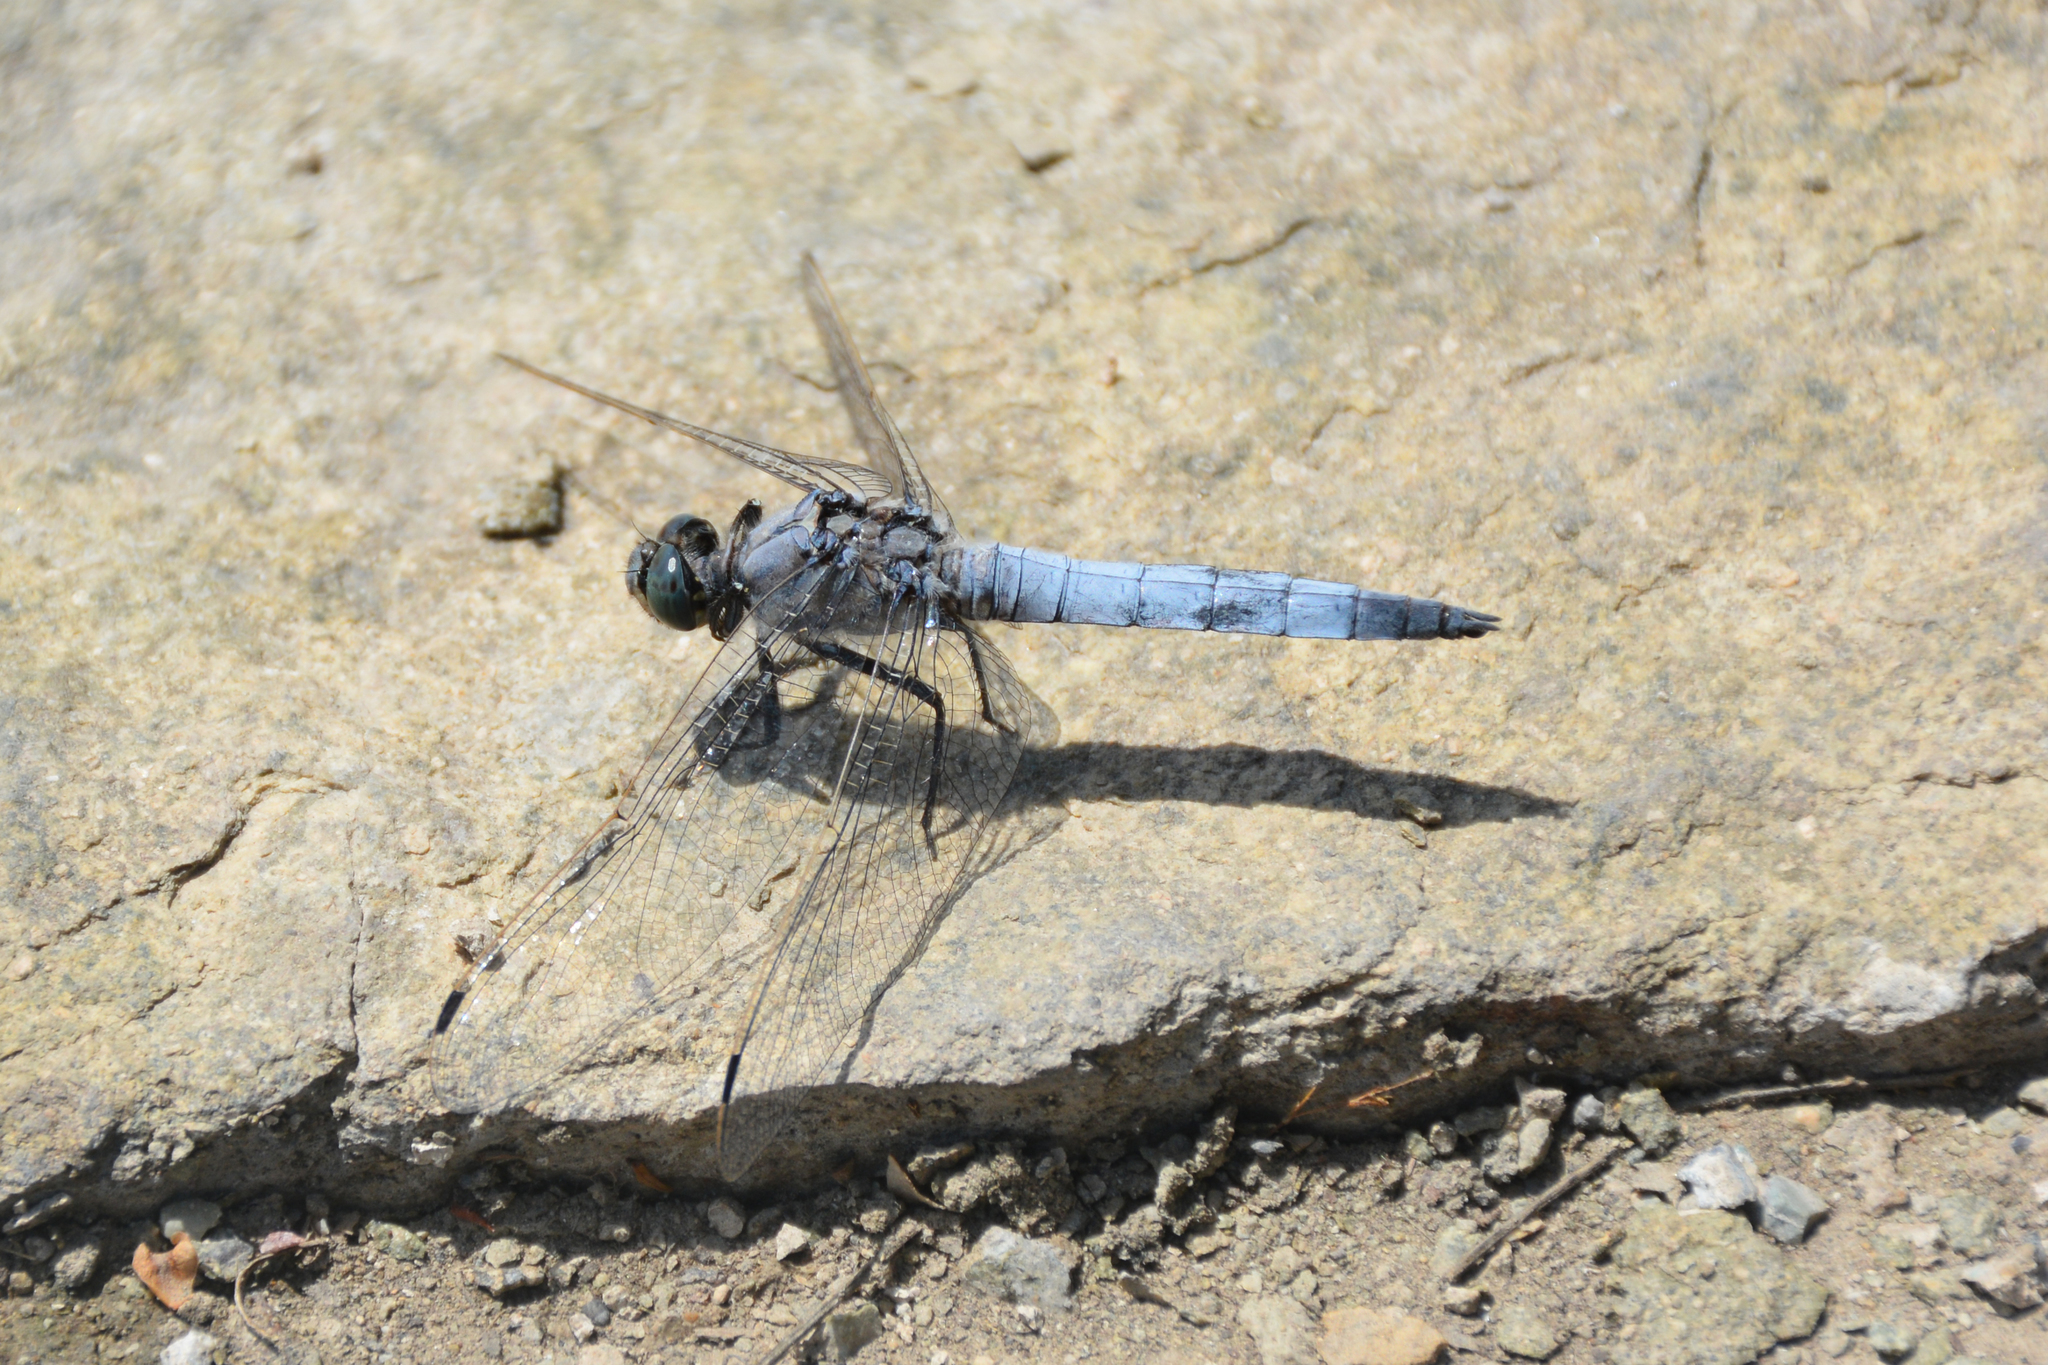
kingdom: Animalia
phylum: Arthropoda
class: Insecta
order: Odonata
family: Libellulidae
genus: Orthetrum
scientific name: Orthetrum cancellatum
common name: Black-tailed skimmer
